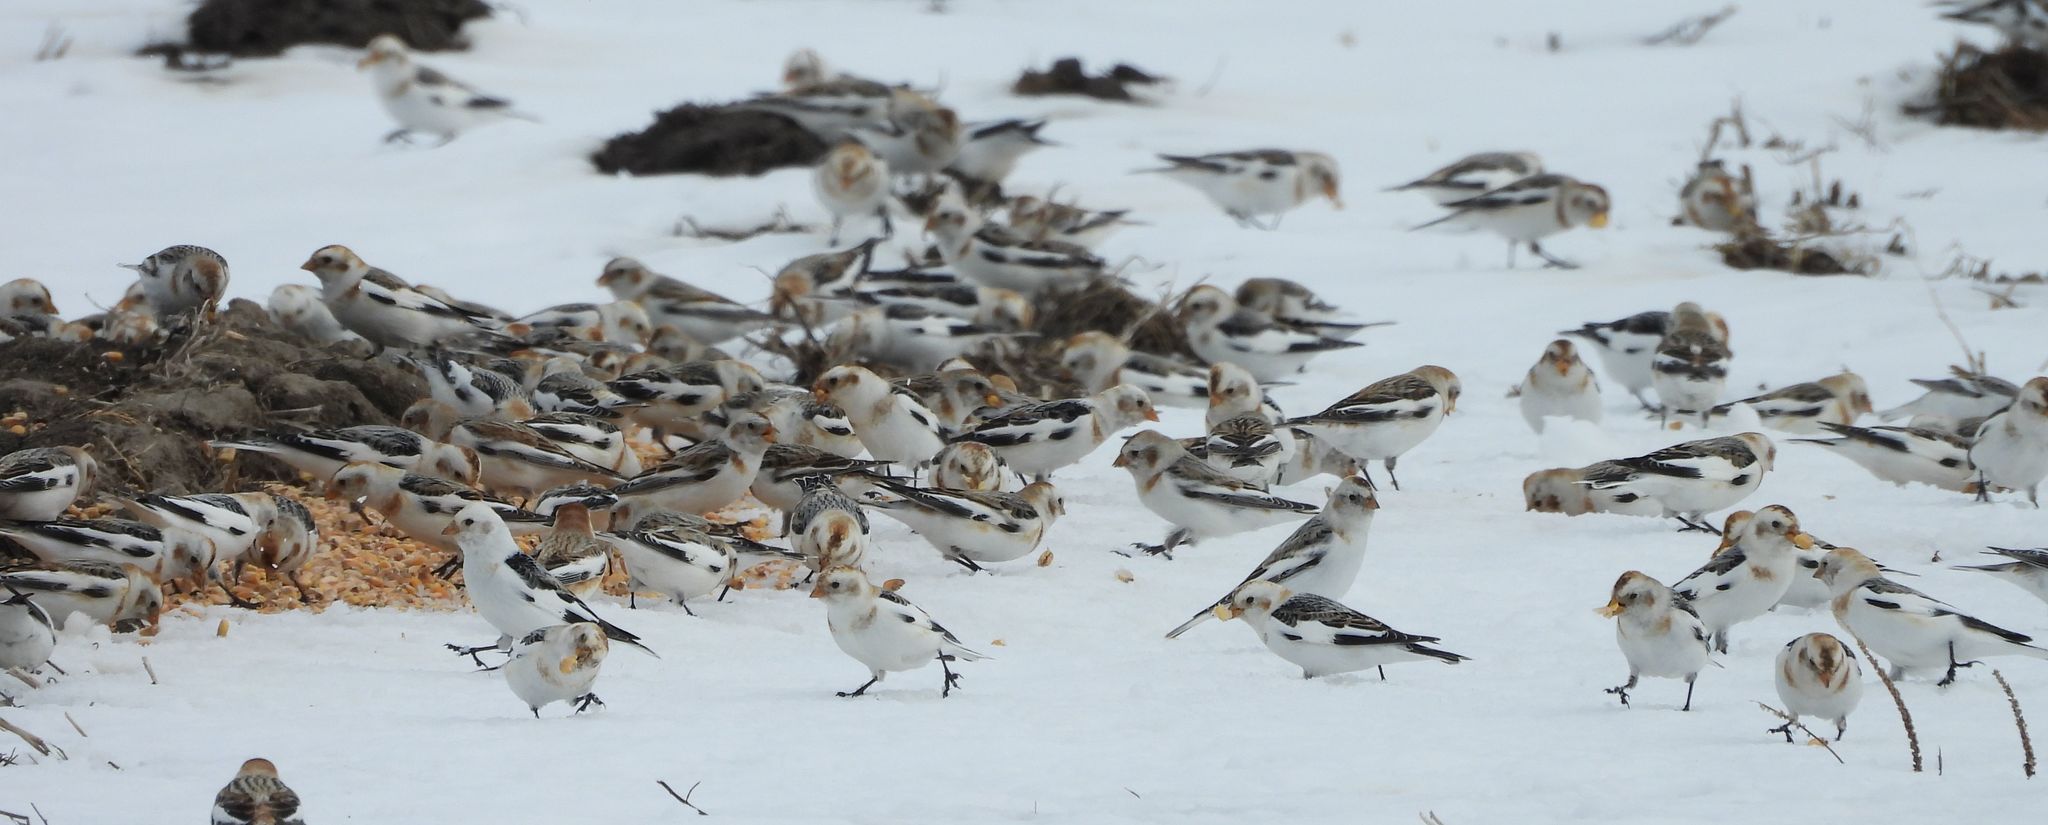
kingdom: Animalia
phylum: Chordata
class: Aves
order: Passeriformes
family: Calcariidae
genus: Plectrophenax
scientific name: Plectrophenax nivalis
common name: Snow bunting
